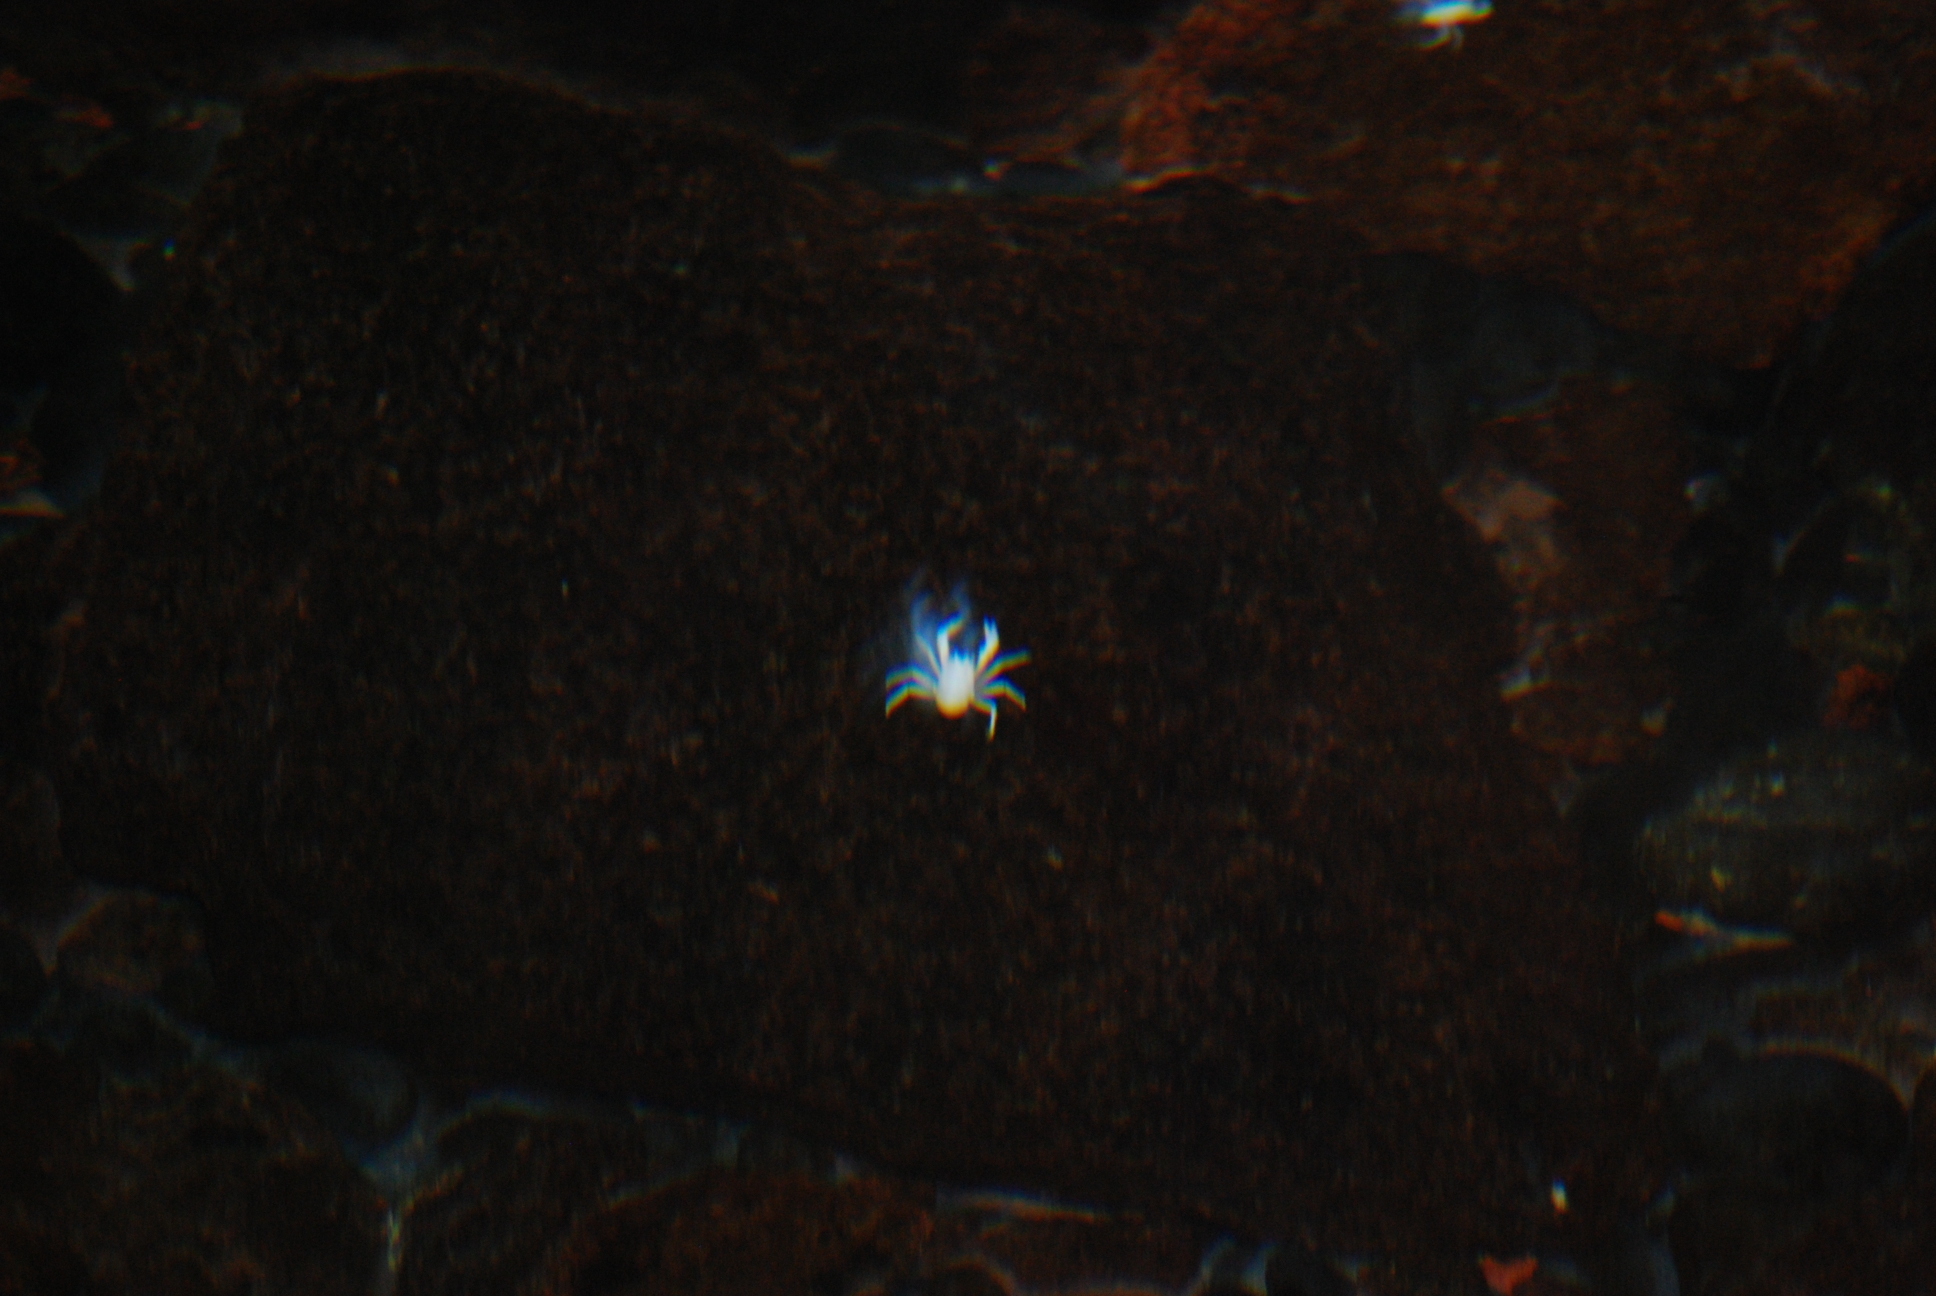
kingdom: Animalia
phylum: Arthropoda
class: Malacostraca
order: Decapoda
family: Munidopsidae
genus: Munidopsis
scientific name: Munidopsis polymorpha
